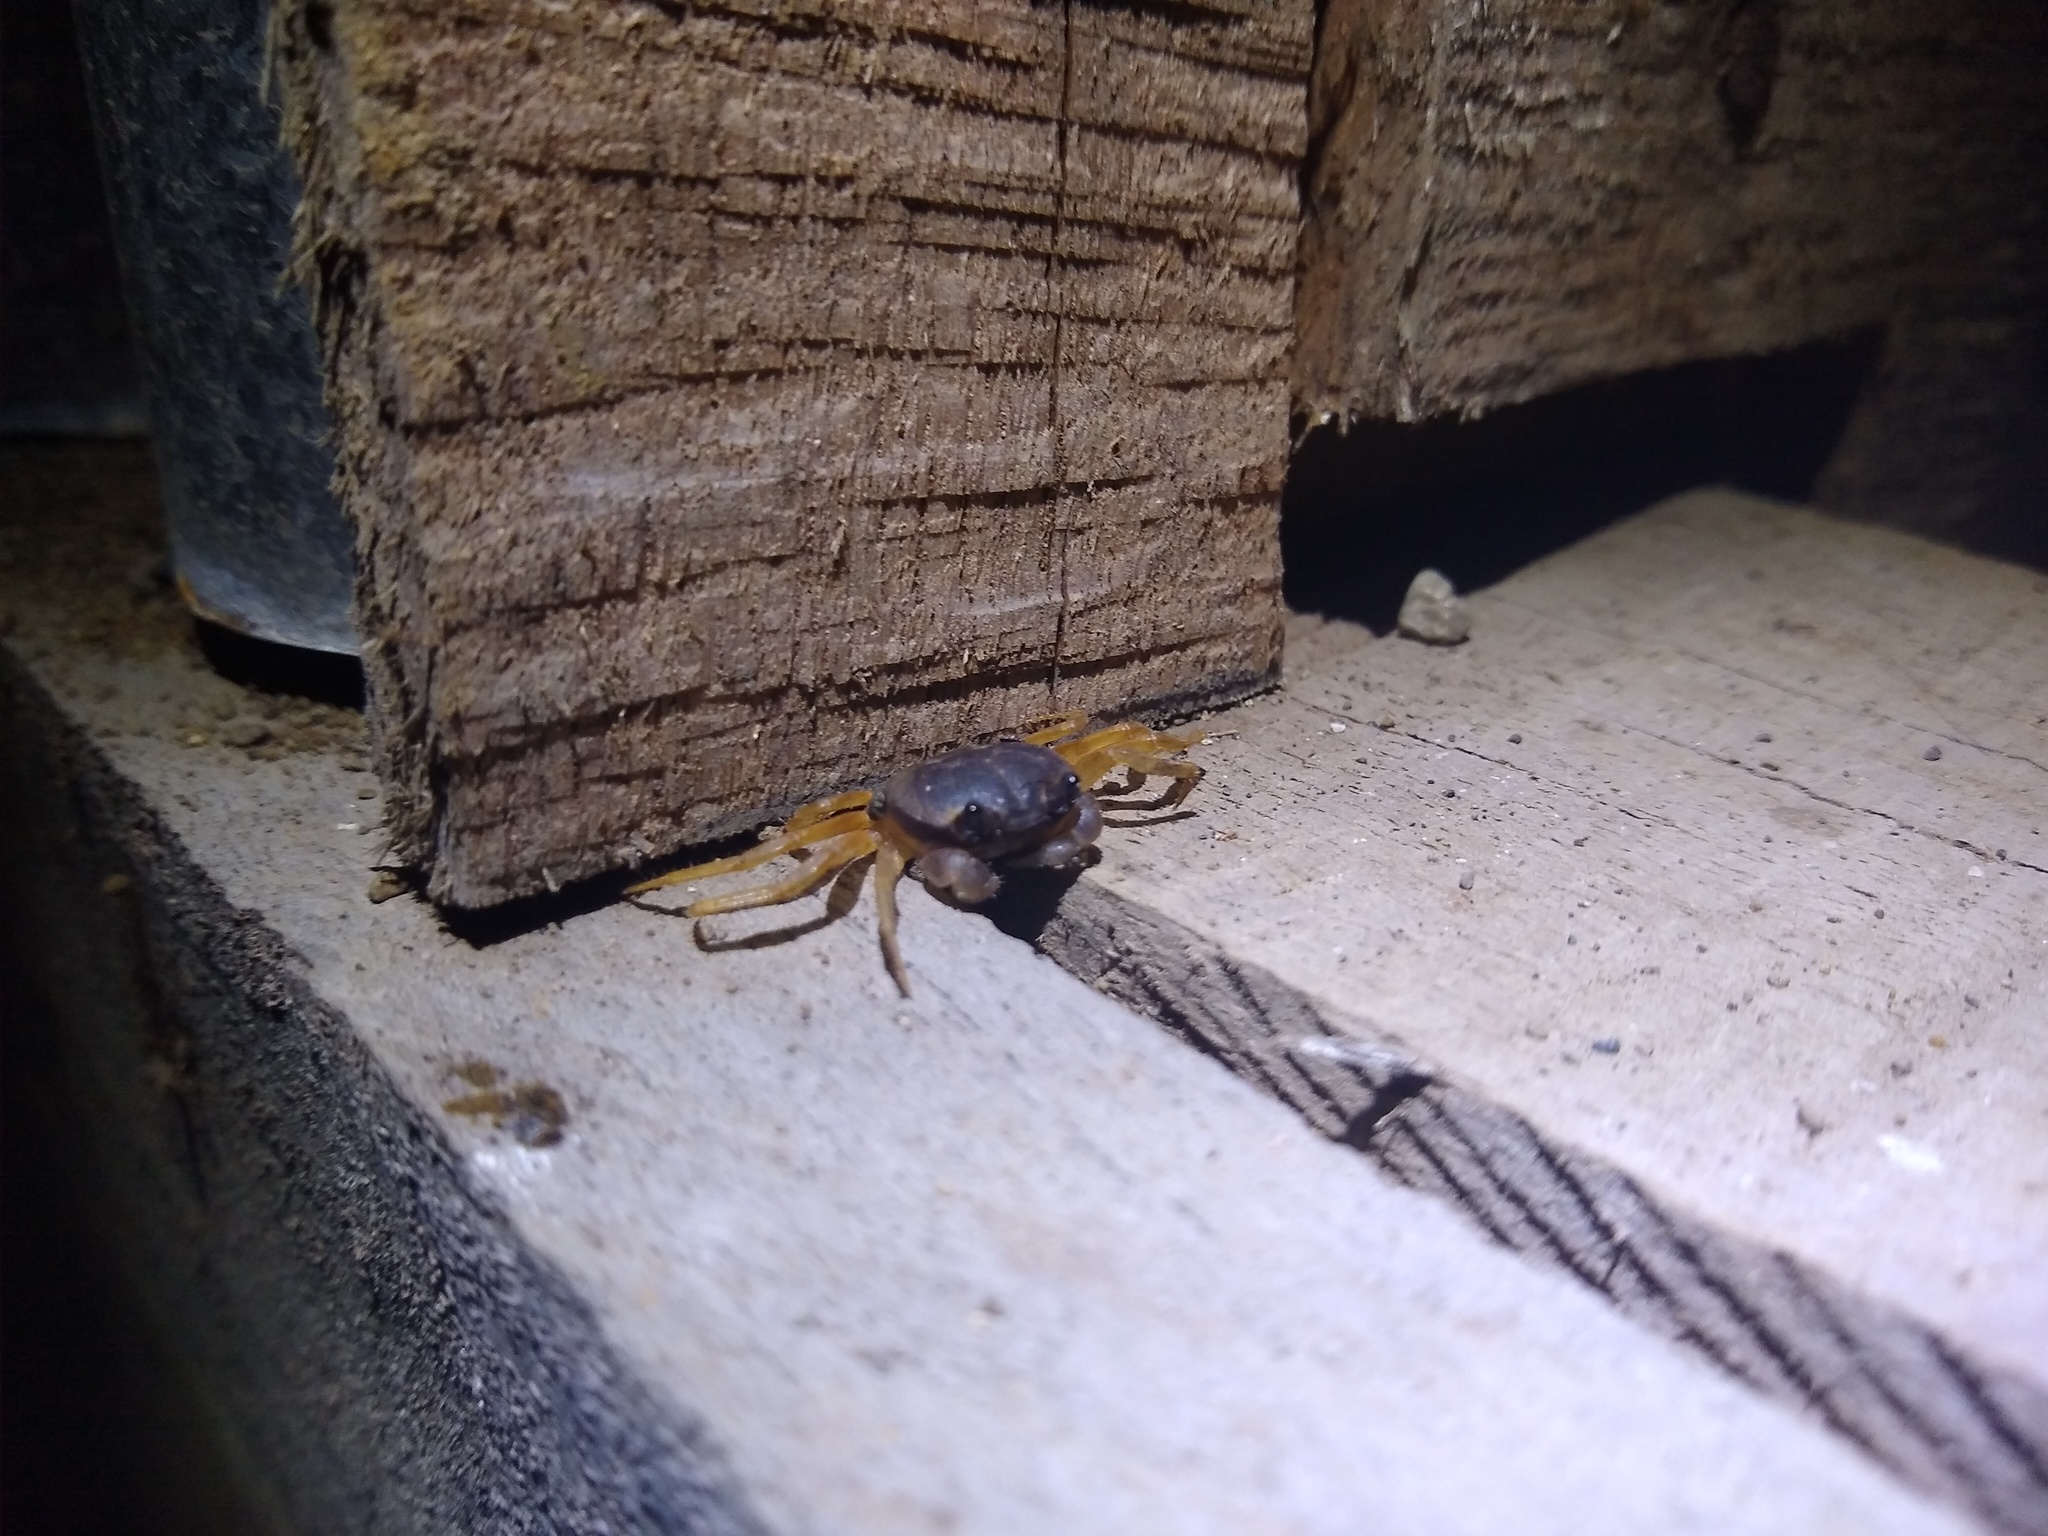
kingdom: Animalia
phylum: Arthropoda
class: Malacostraca
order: Decapoda
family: Gecarcinidae
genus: Gecarcinus
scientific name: Gecarcinus quadratus
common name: Halloween crab
